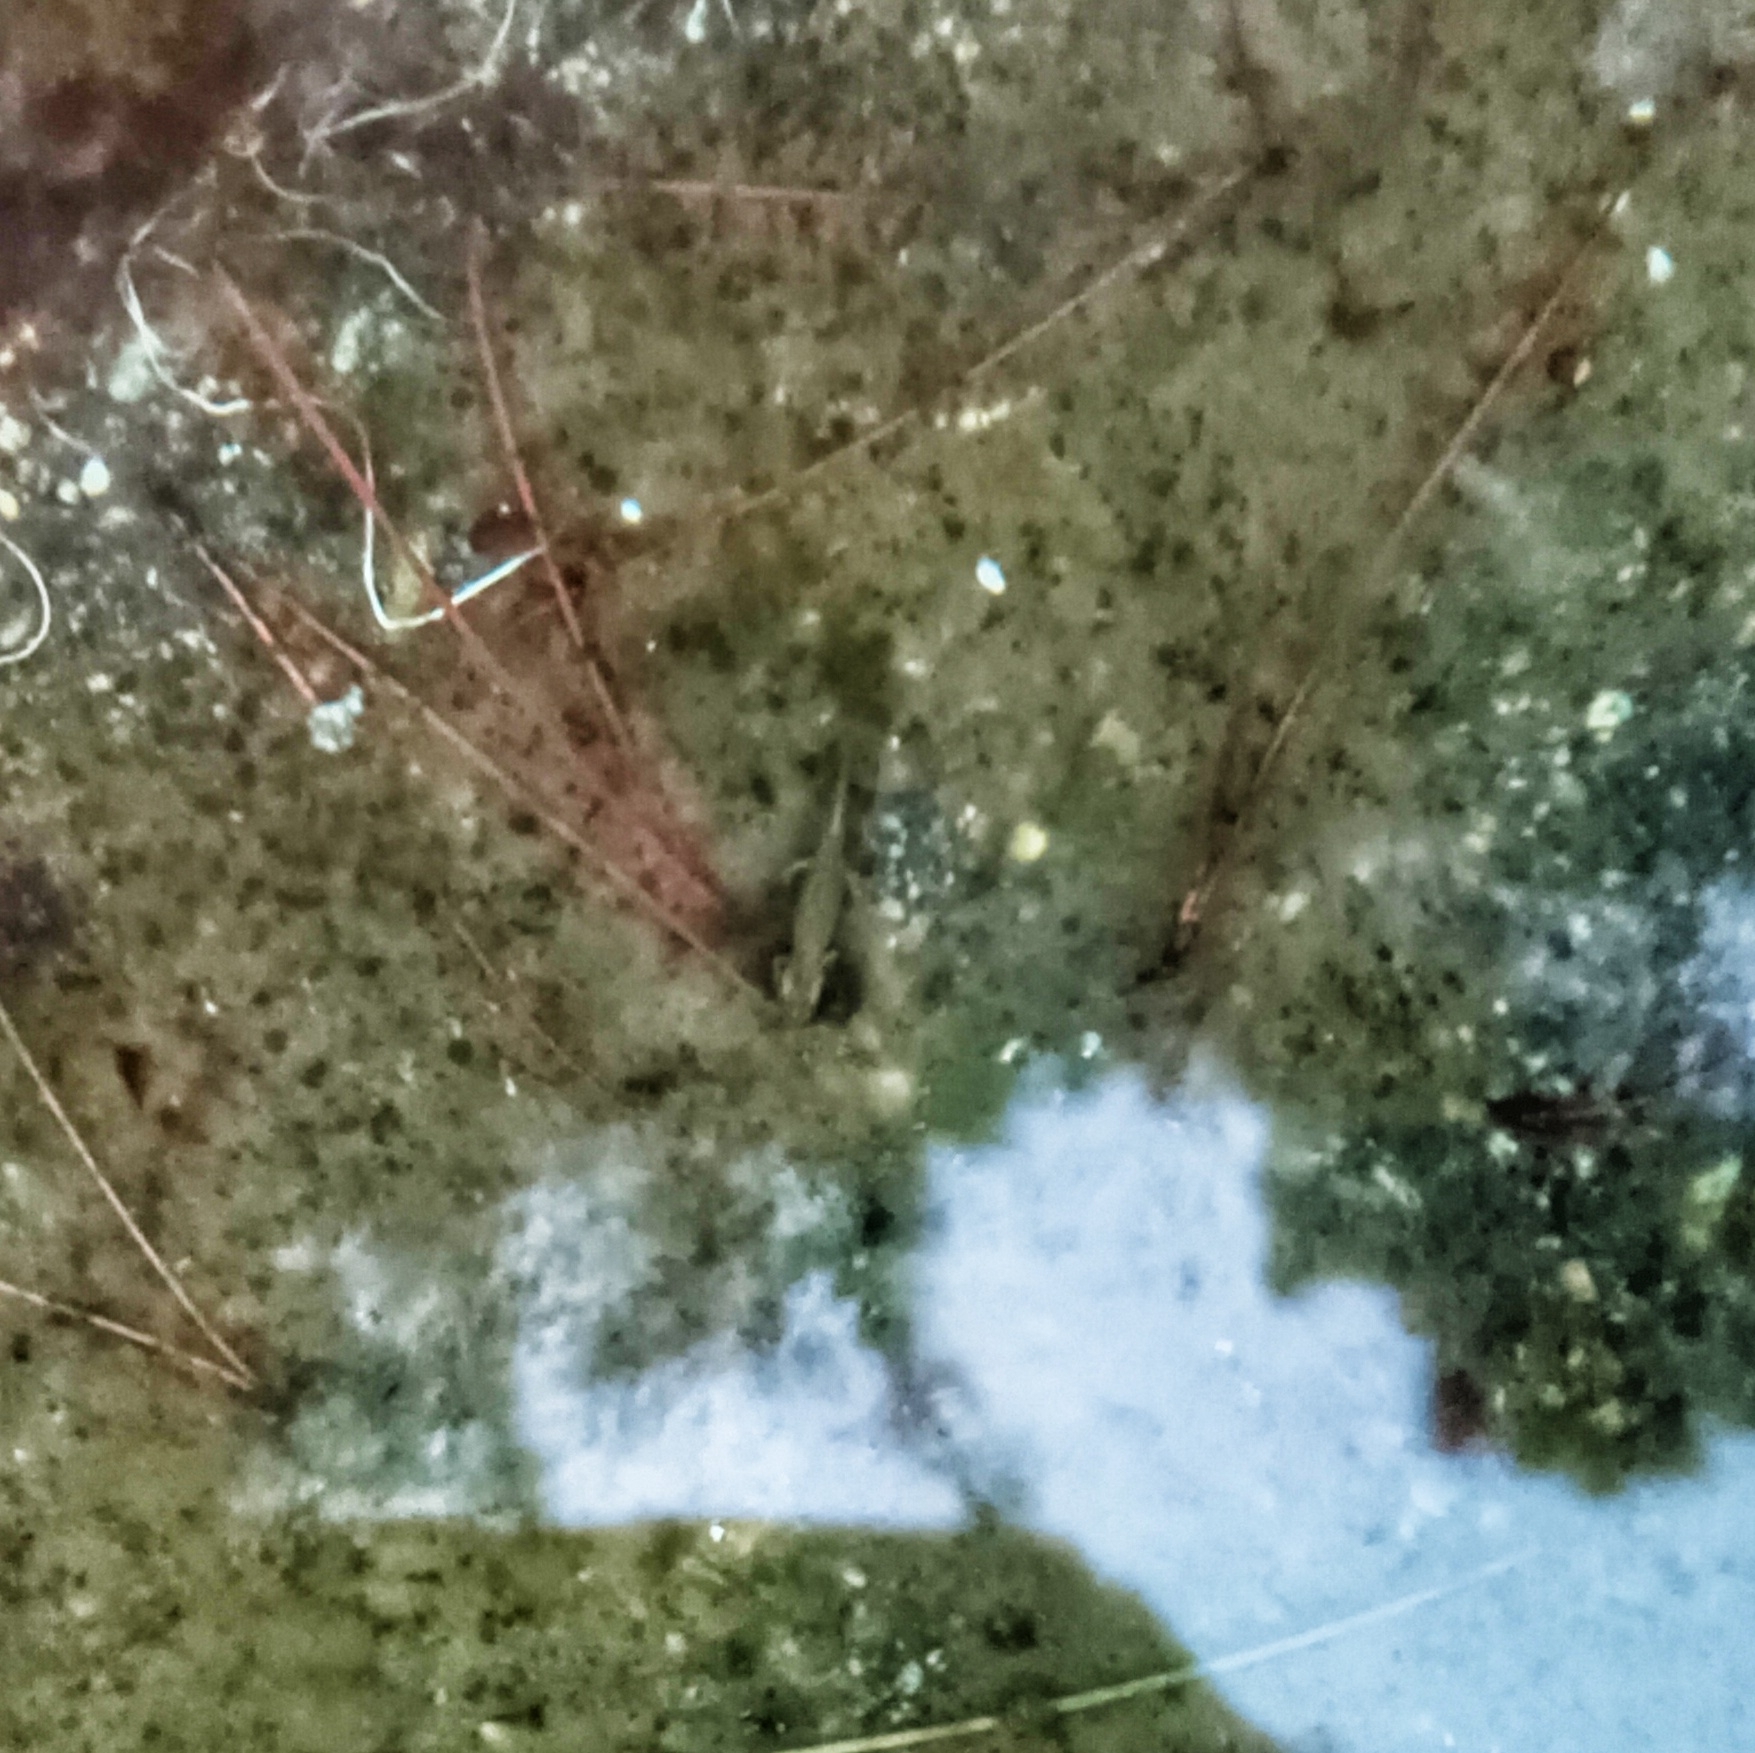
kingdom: Animalia
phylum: Chordata
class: Amphibia
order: Caudata
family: Salamandridae
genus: Lissotriton
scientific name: Lissotriton italicus
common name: Italian newt
